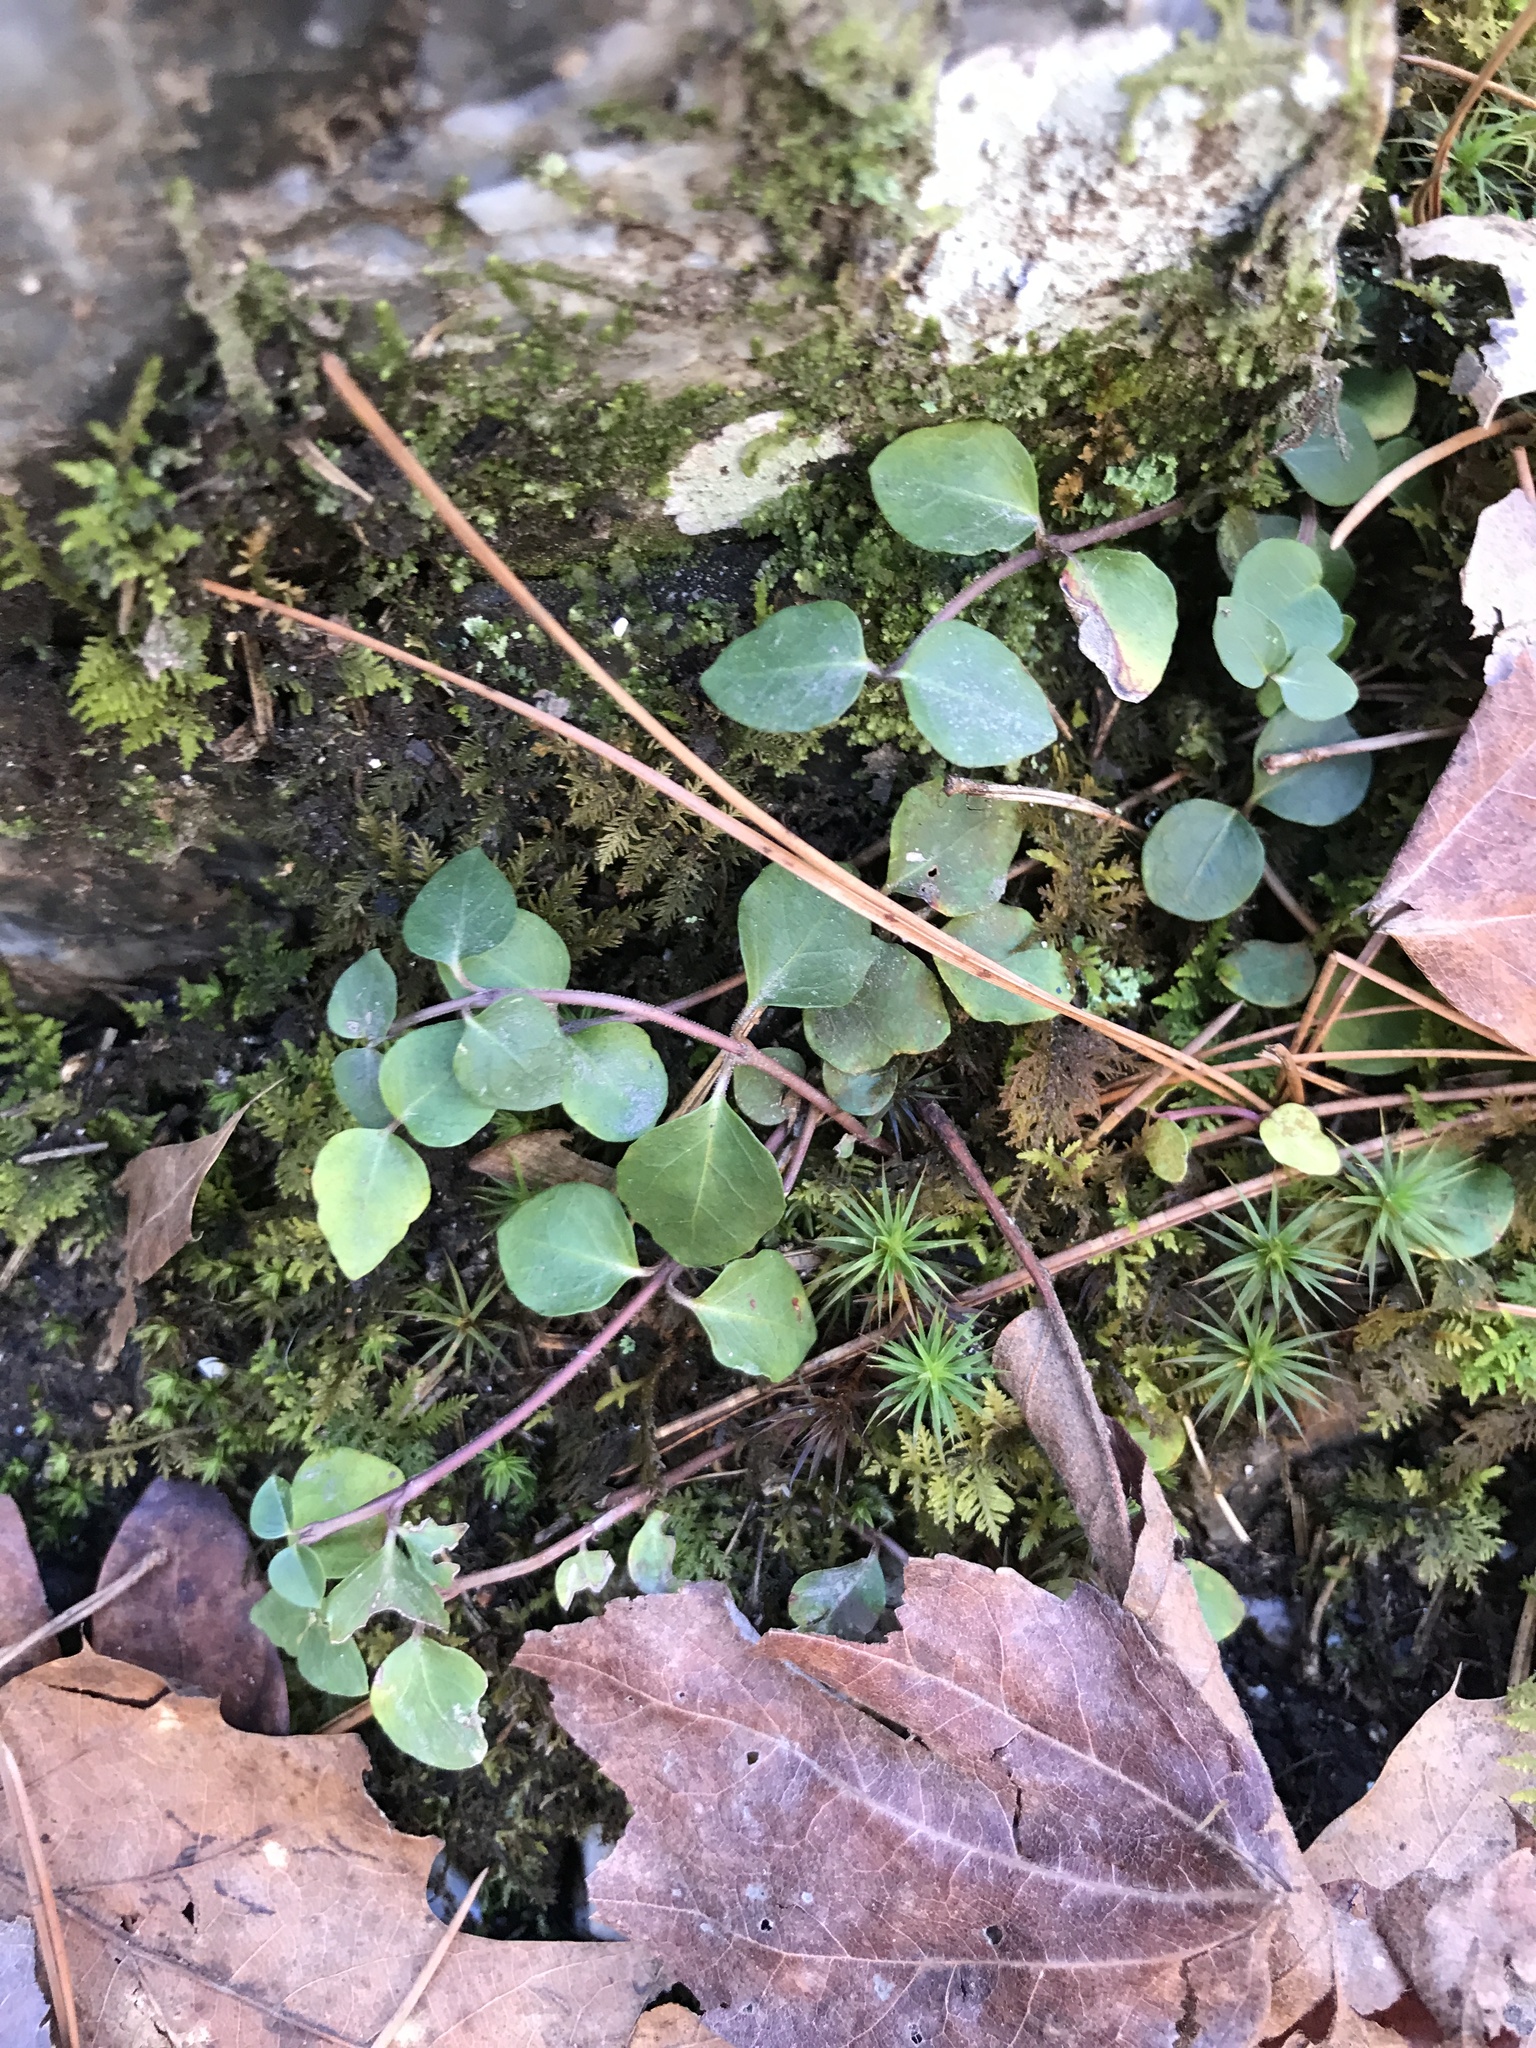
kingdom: Plantae
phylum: Tracheophyta
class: Magnoliopsida
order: Gentianales
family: Rubiaceae
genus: Mitchella
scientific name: Mitchella repens
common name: Partridge-berry
